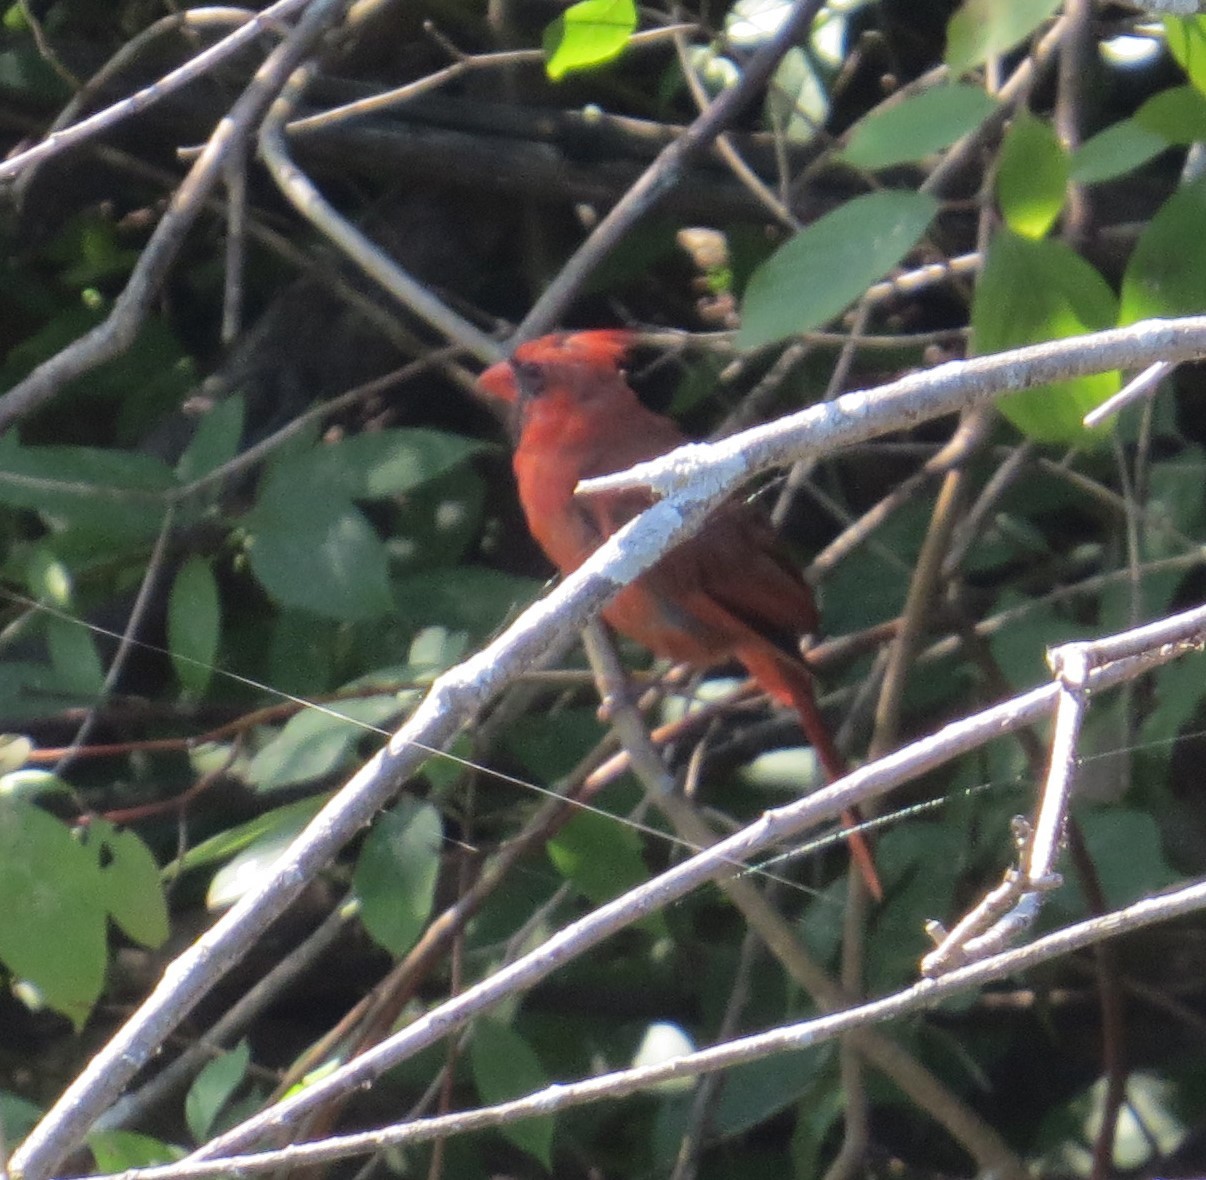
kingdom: Animalia
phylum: Chordata
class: Aves
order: Passeriformes
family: Cardinalidae
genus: Cardinalis
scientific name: Cardinalis cardinalis
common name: Northern cardinal
